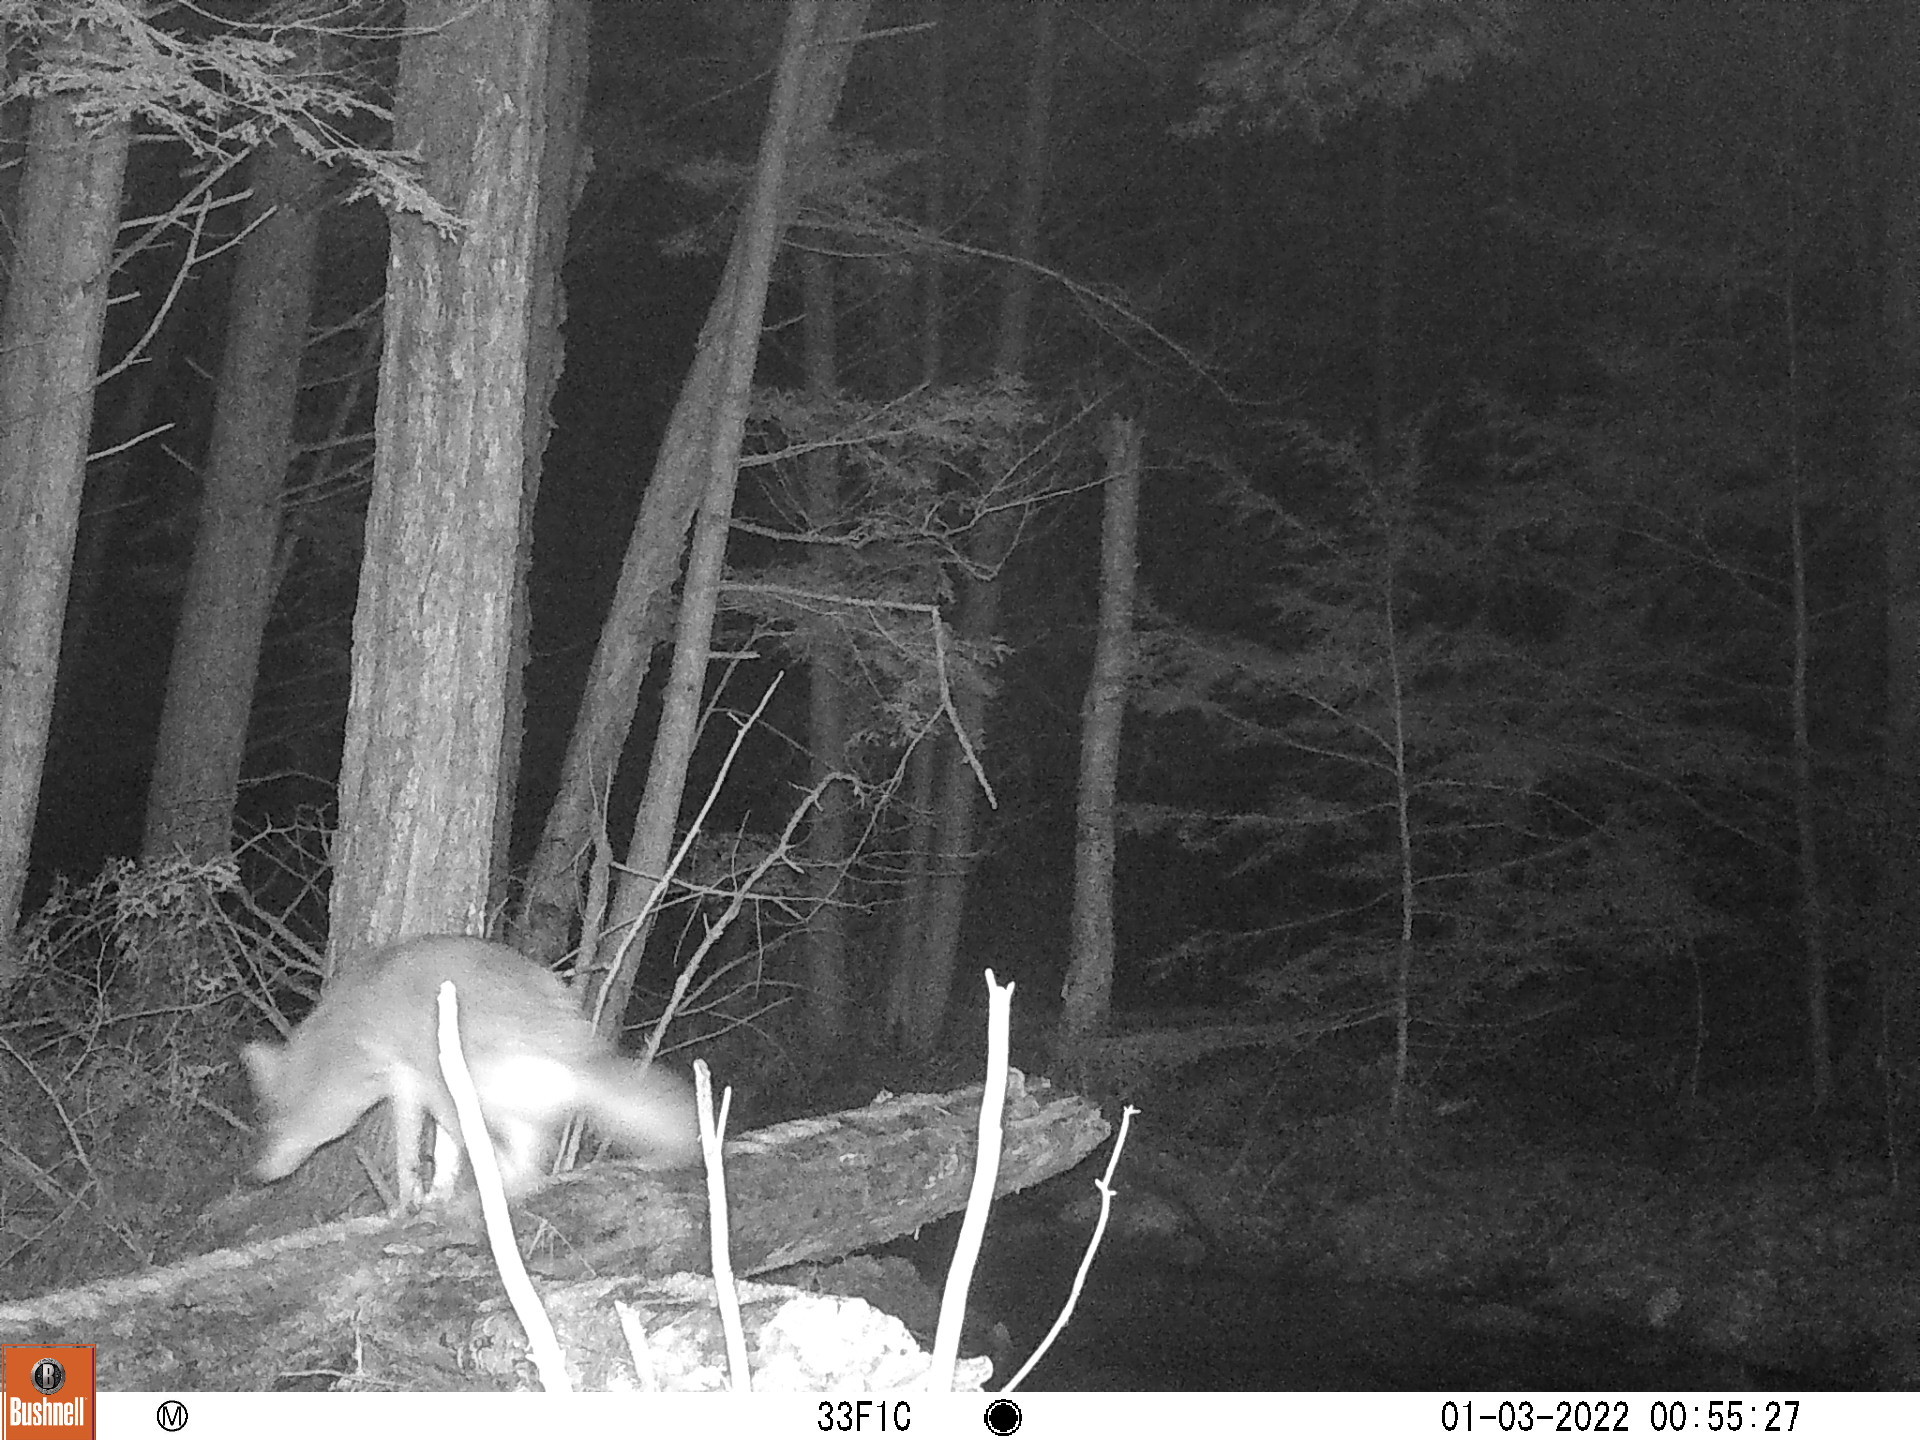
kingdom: Animalia
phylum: Chordata
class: Mammalia
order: Carnivora
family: Canidae
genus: Canis
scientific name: Canis latrans
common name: Coyote
